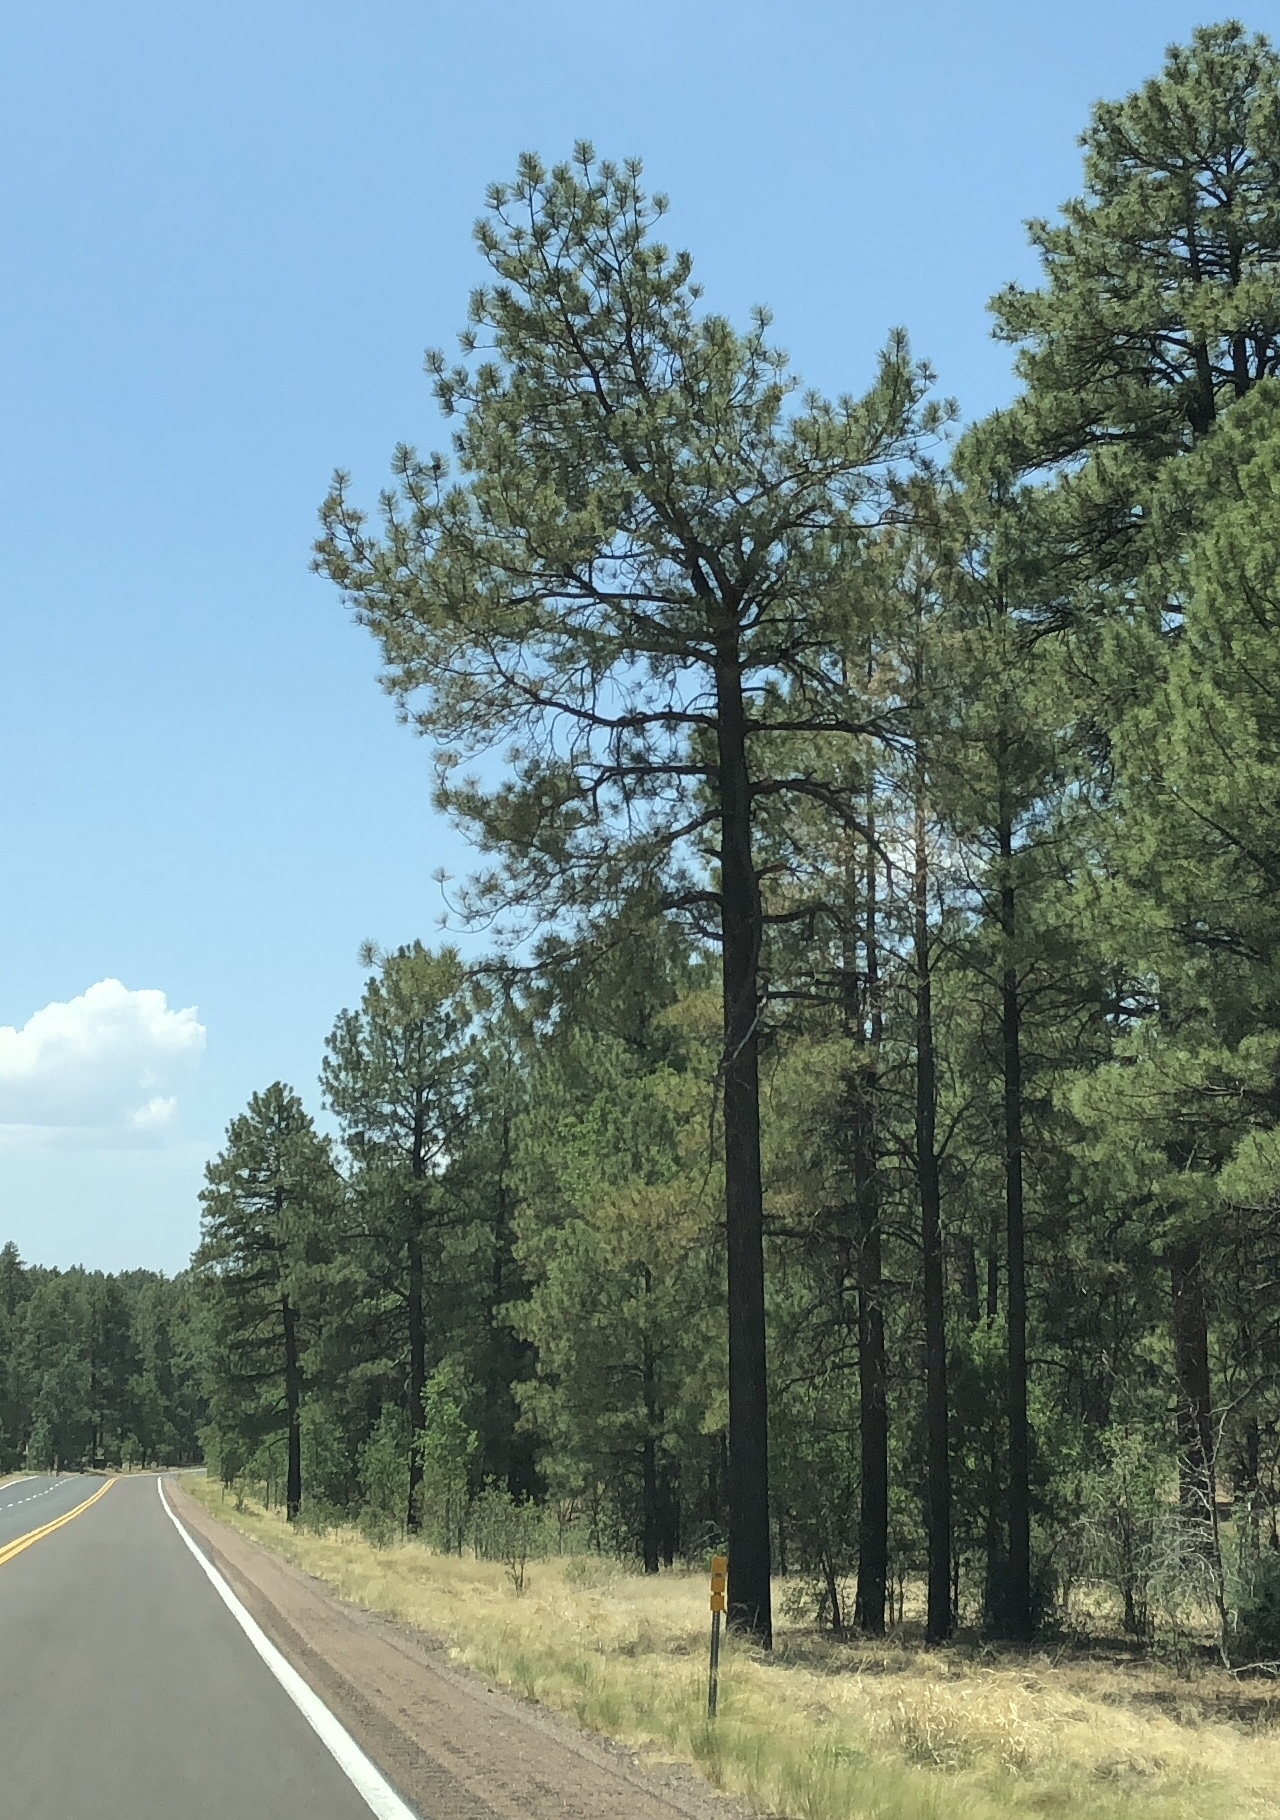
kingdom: Plantae
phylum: Tracheophyta
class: Pinopsida
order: Pinales
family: Pinaceae
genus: Pinus
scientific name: Pinus ponderosa
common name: Western yellow-pine
